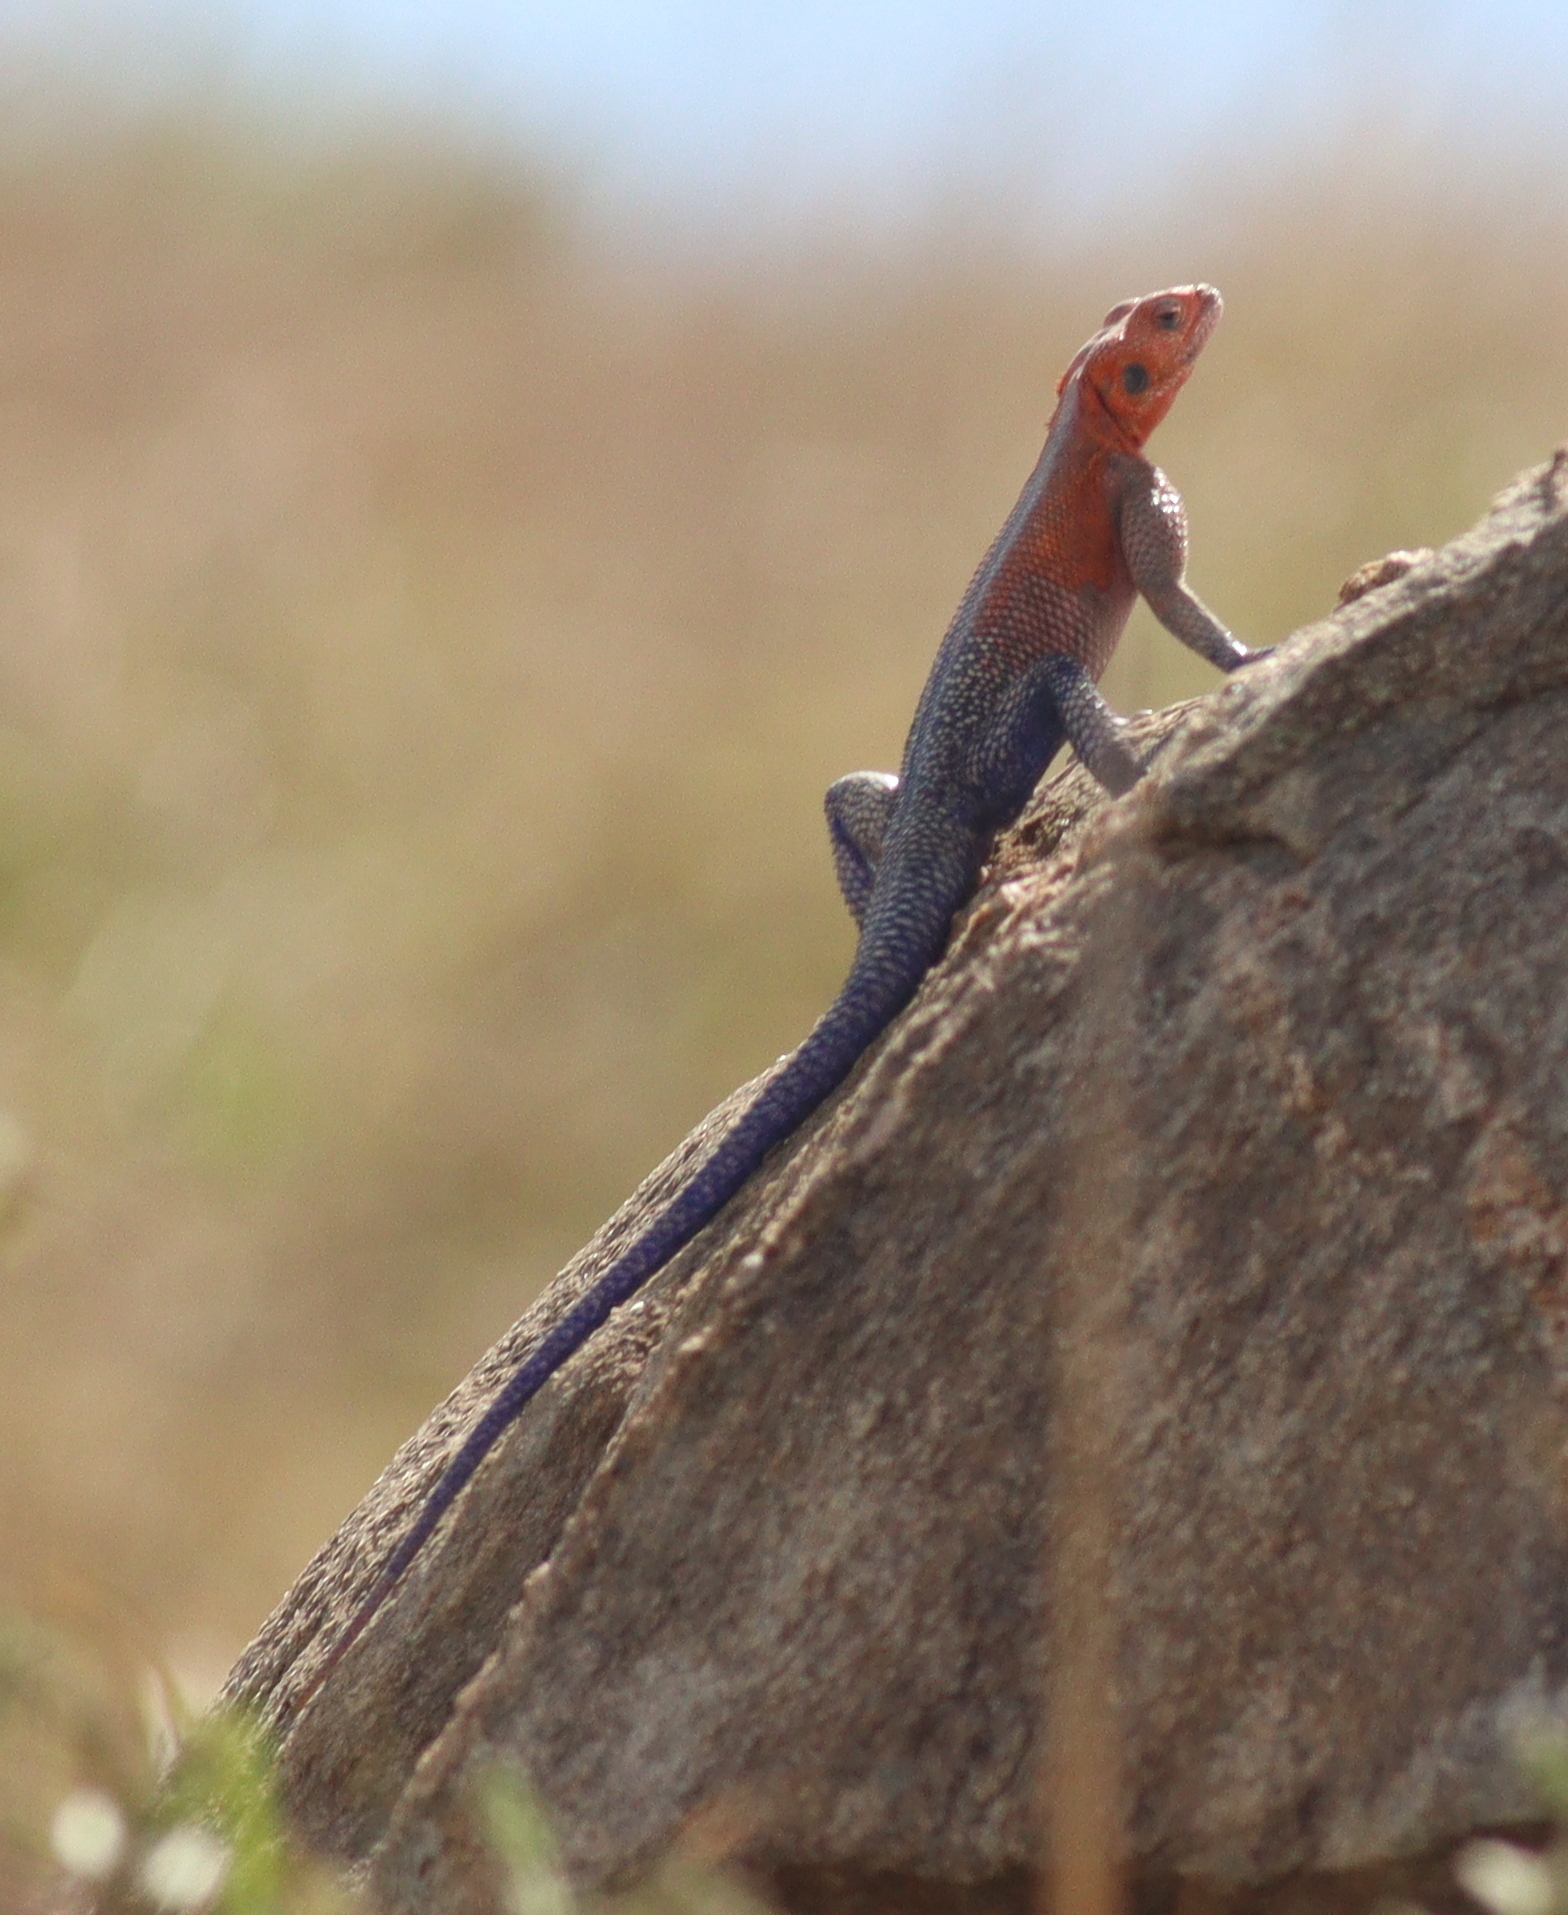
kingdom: Animalia
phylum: Chordata
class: Squamata
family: Agamidae
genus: Agama
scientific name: Agama mwanzae
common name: Mwanza flat-headed agama
